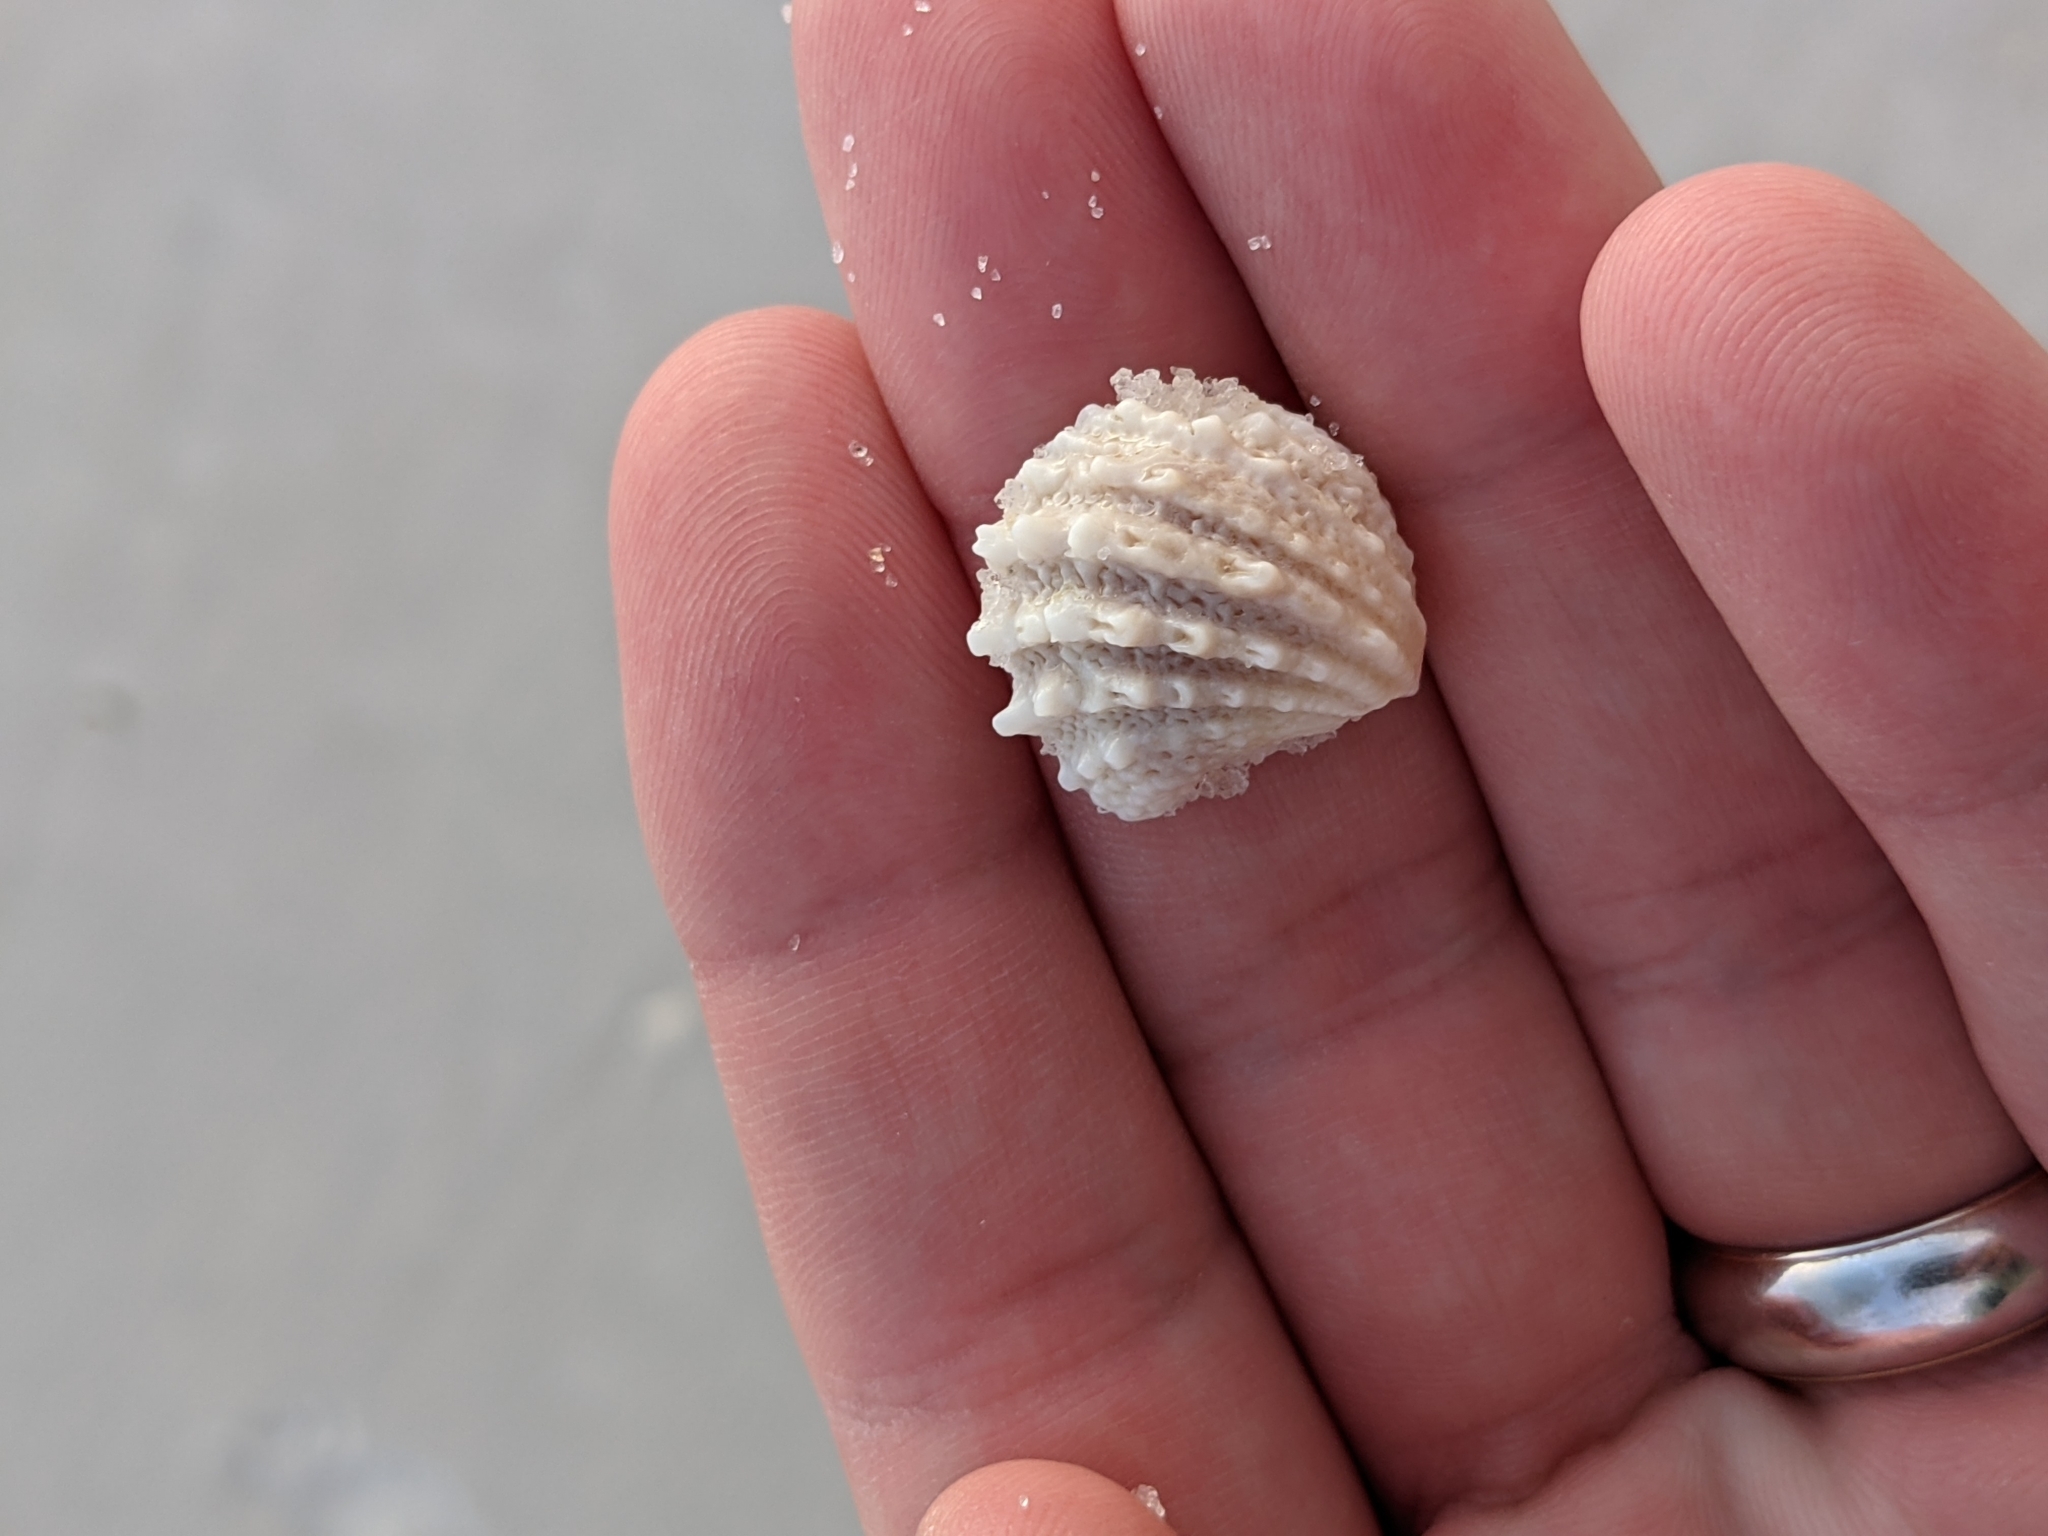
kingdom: Animalia
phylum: Mollusca
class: Bivalvia
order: Venerida
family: Chamidae
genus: Arcinella
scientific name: Arcinella cornuta
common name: Florida spiny jewel box
